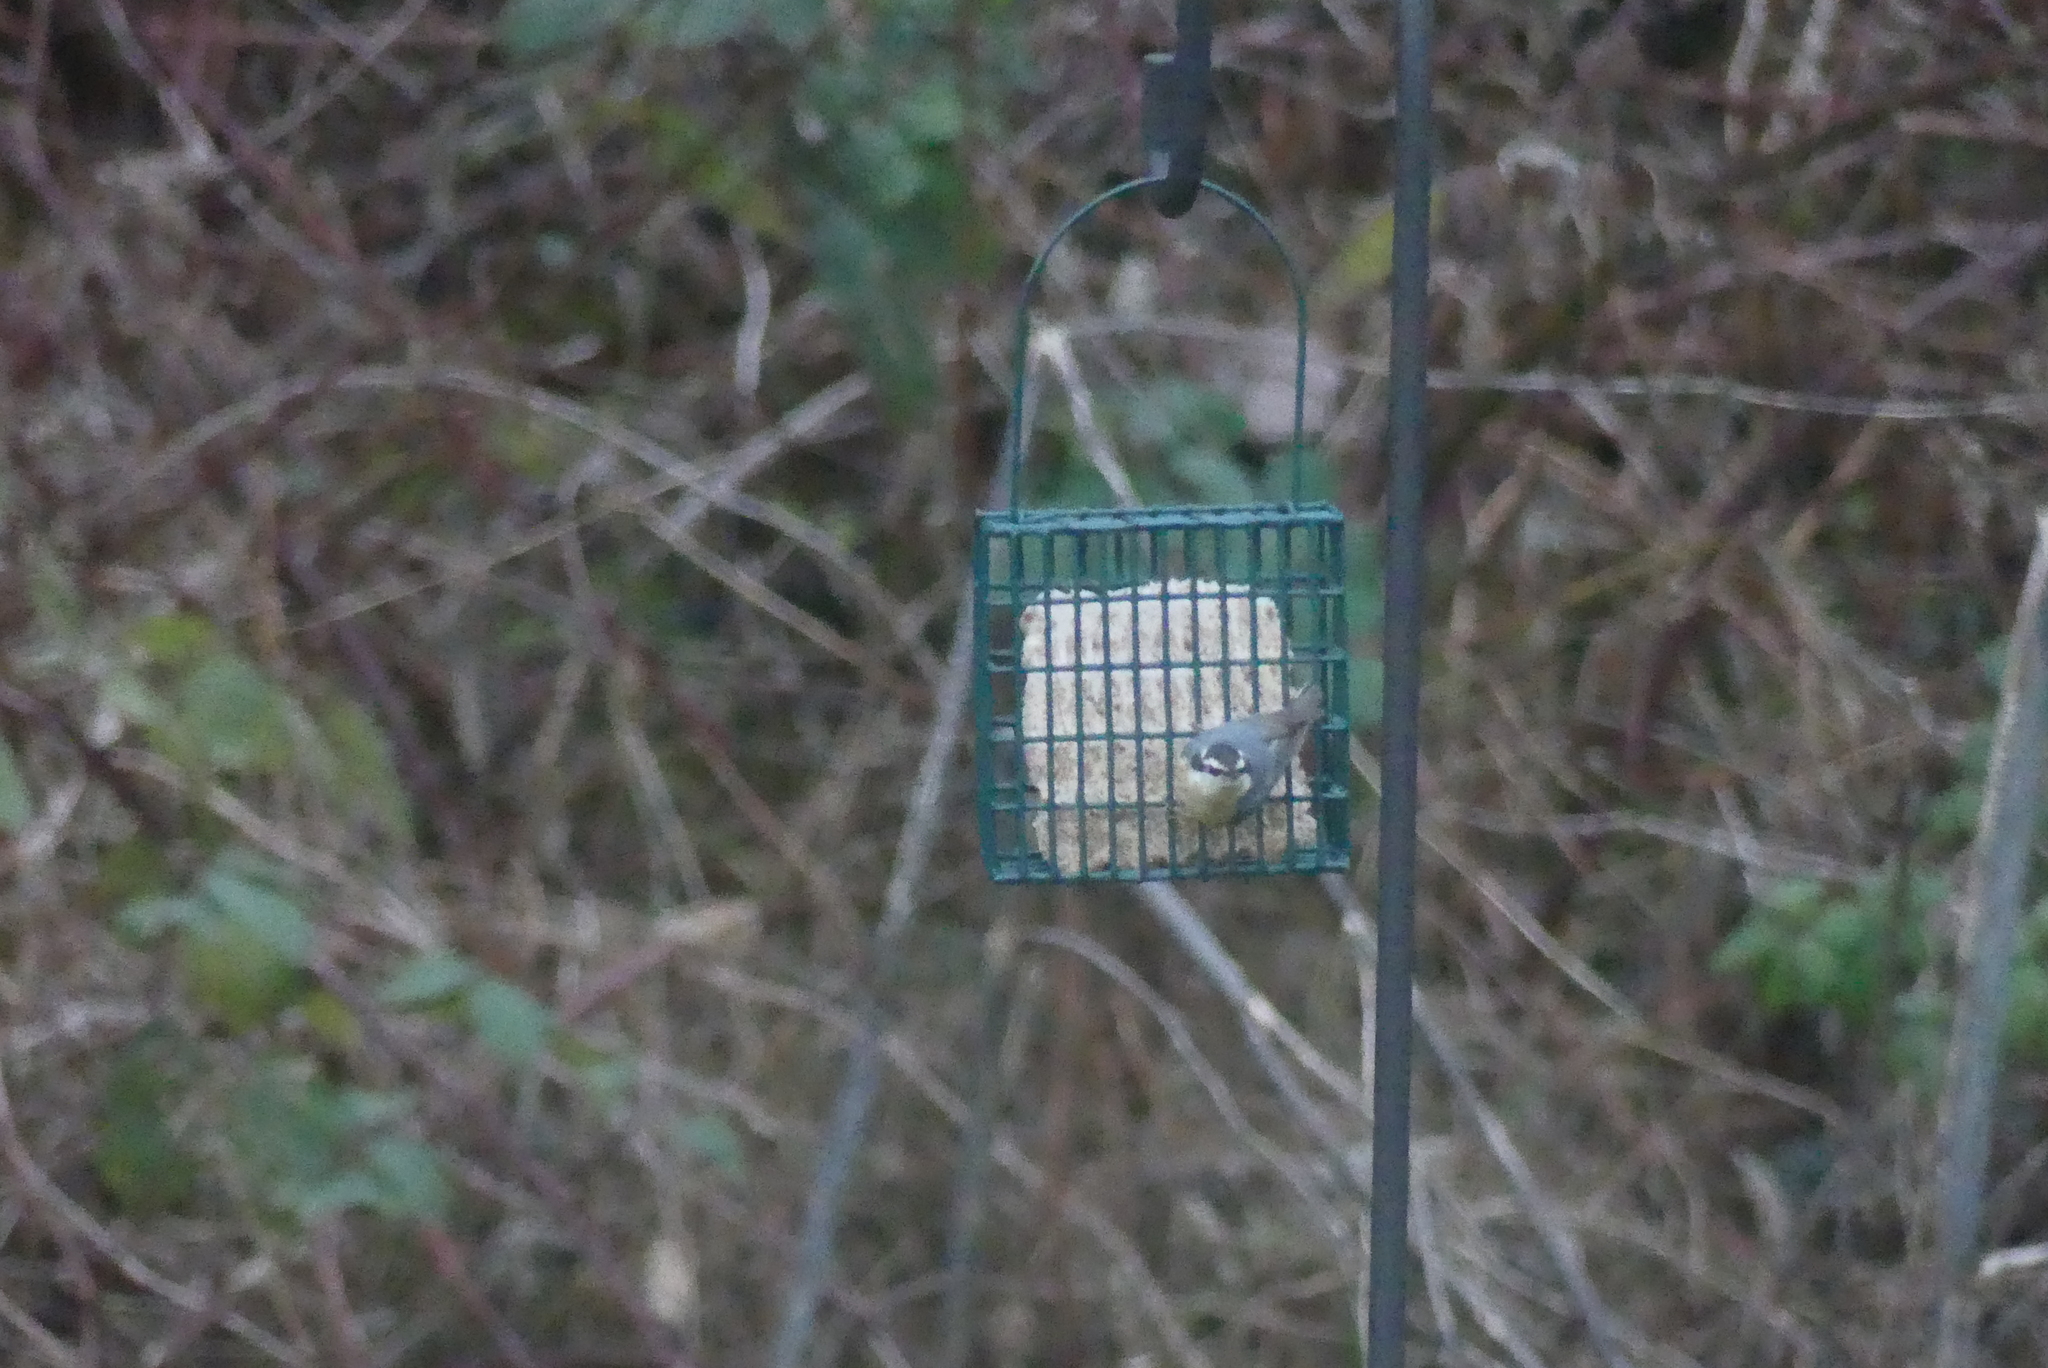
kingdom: Animalia
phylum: Chordata
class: Aves
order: Passeriformes
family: Sittidae
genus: Sitta
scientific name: Sitta canadensis
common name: Red-breasted nuthatch
